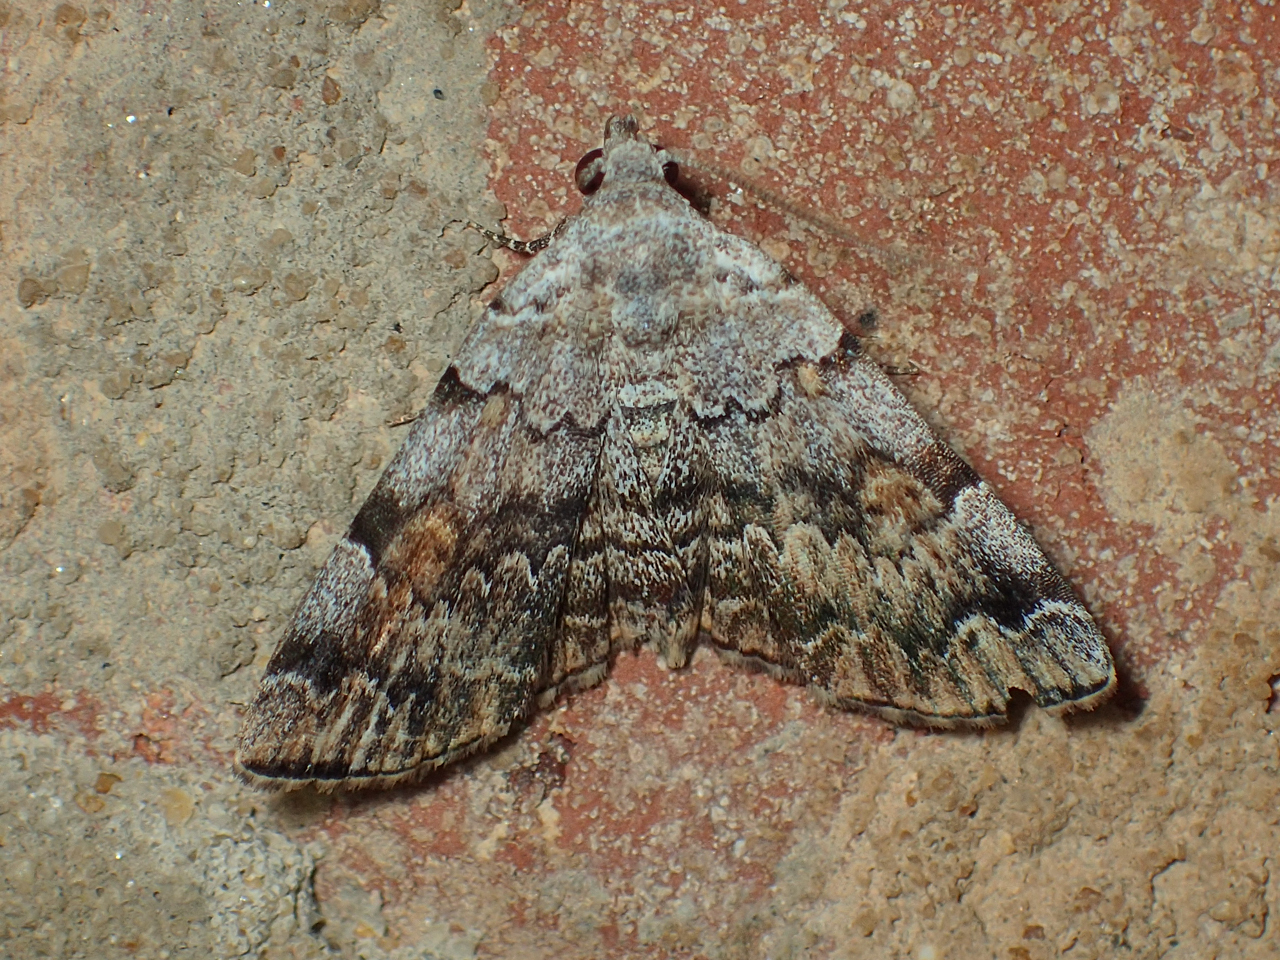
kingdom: Animalia
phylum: Arthropoda
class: Insecta
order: Lepidoptera
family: Erebidae
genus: Idia
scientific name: Idia americalis
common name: American idia moth
